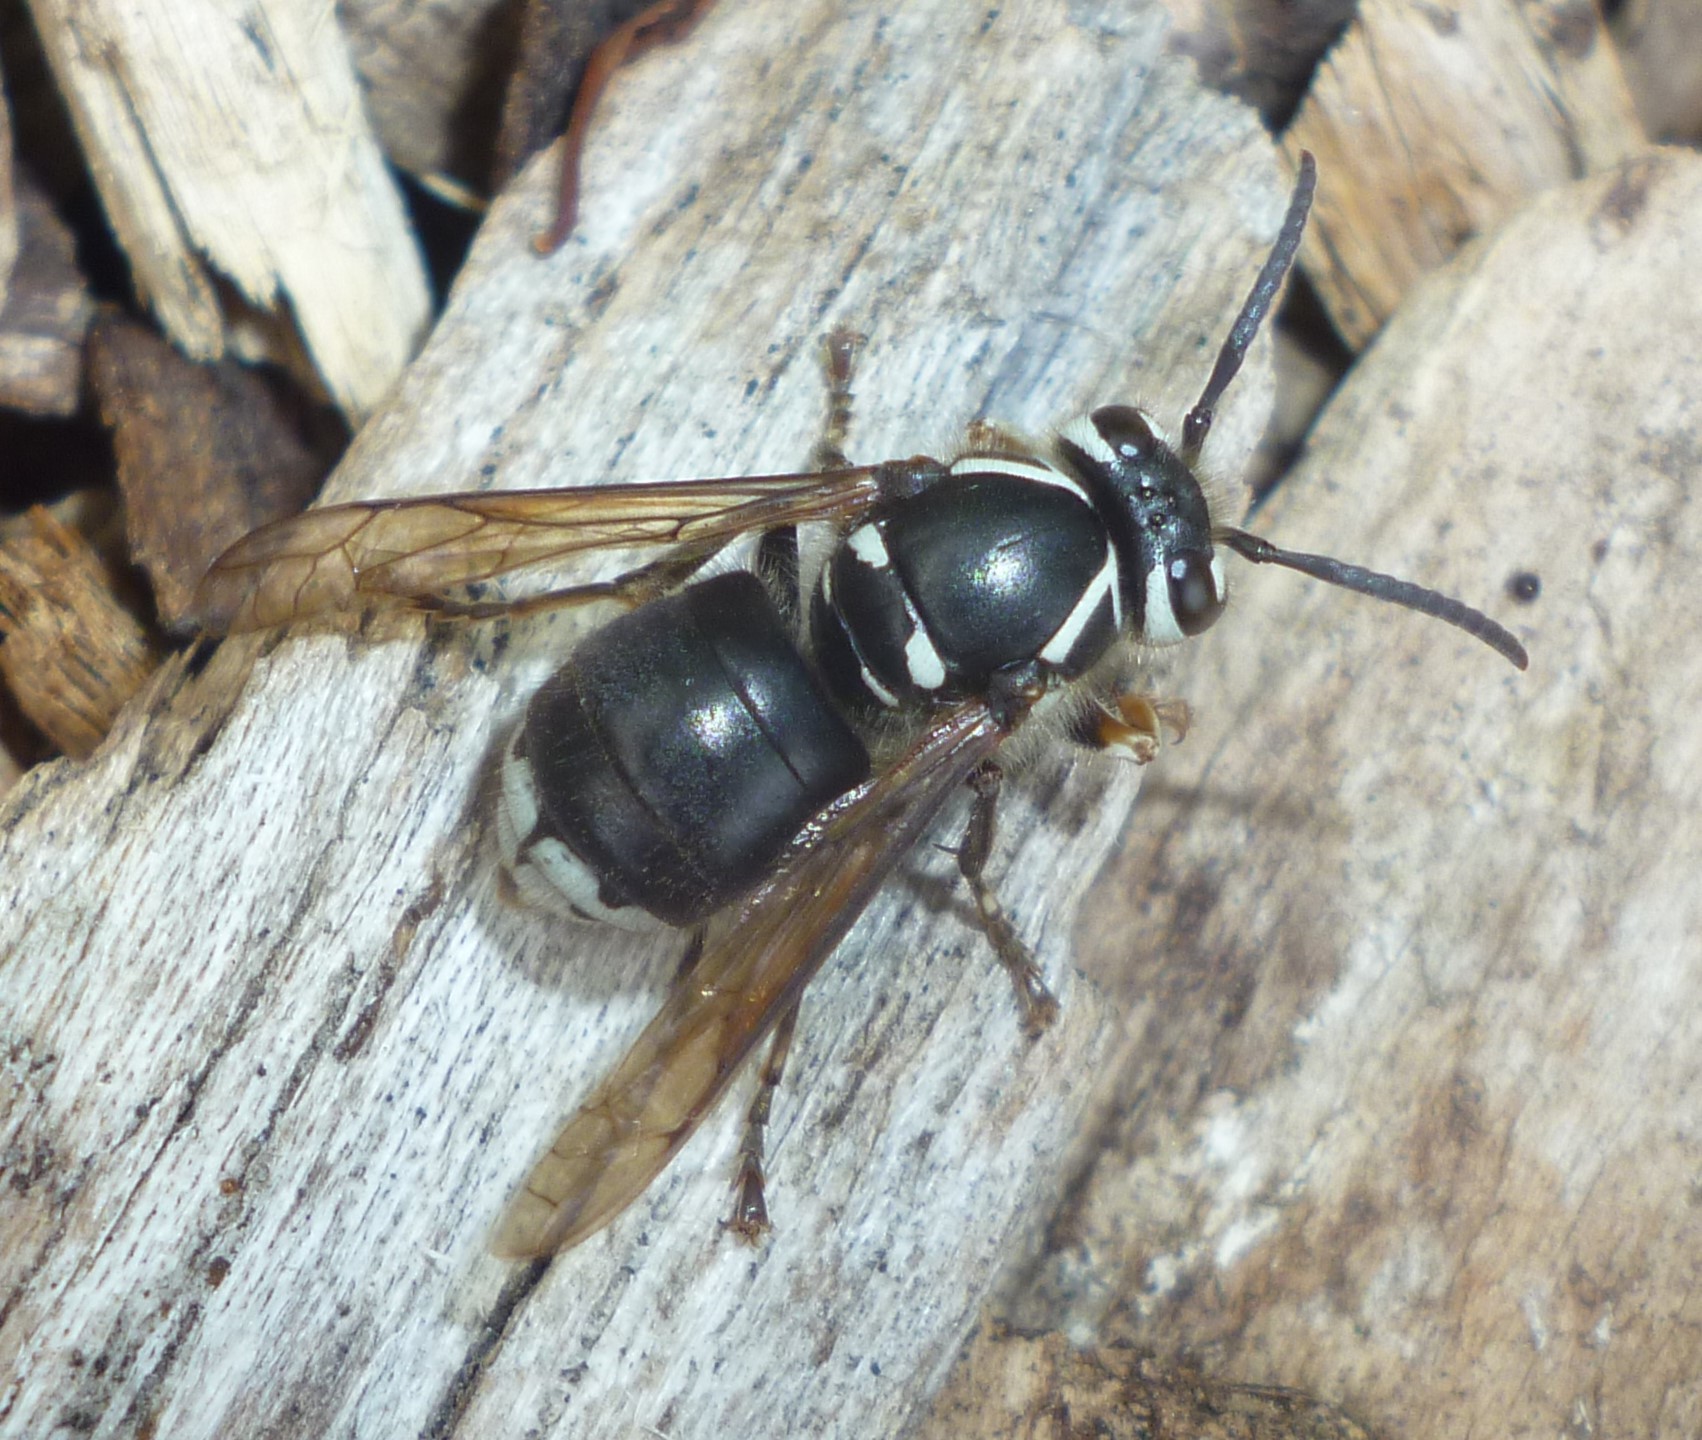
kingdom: Animalia
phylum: Arthropoda
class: Insecta
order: Hymenoptera
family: Vespidae
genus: Dolichovespula
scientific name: Dolichovespula maculata
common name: Bald-faced hornet
